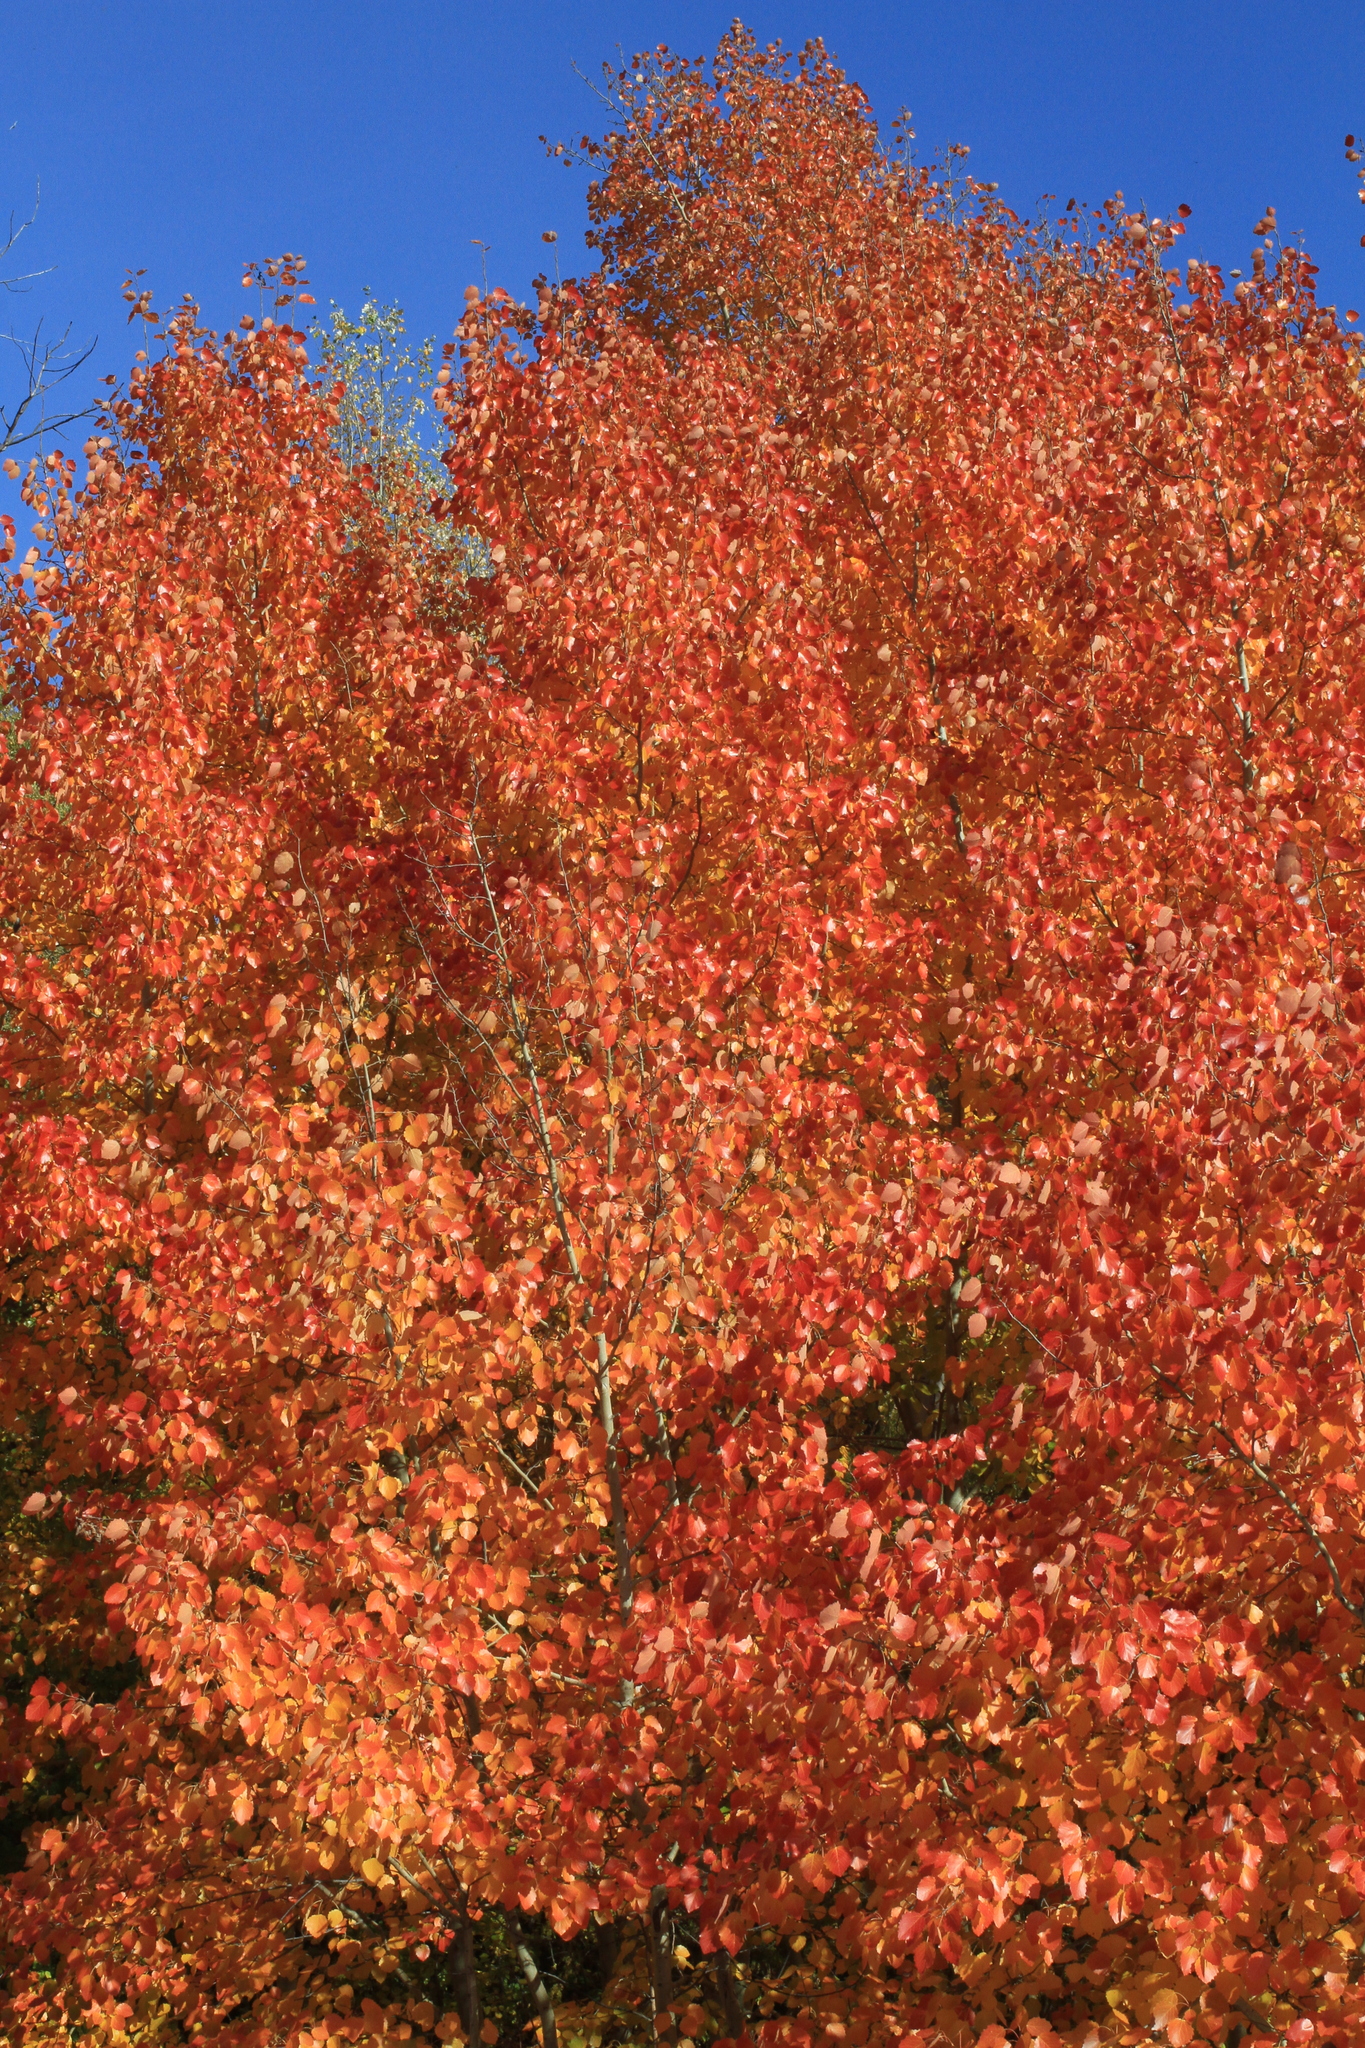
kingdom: Plantae
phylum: Tracheophyta
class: Magnoliopsida
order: Malpighiales
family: Salicaceae
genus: Populus
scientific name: Populus tremula
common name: European aspen
